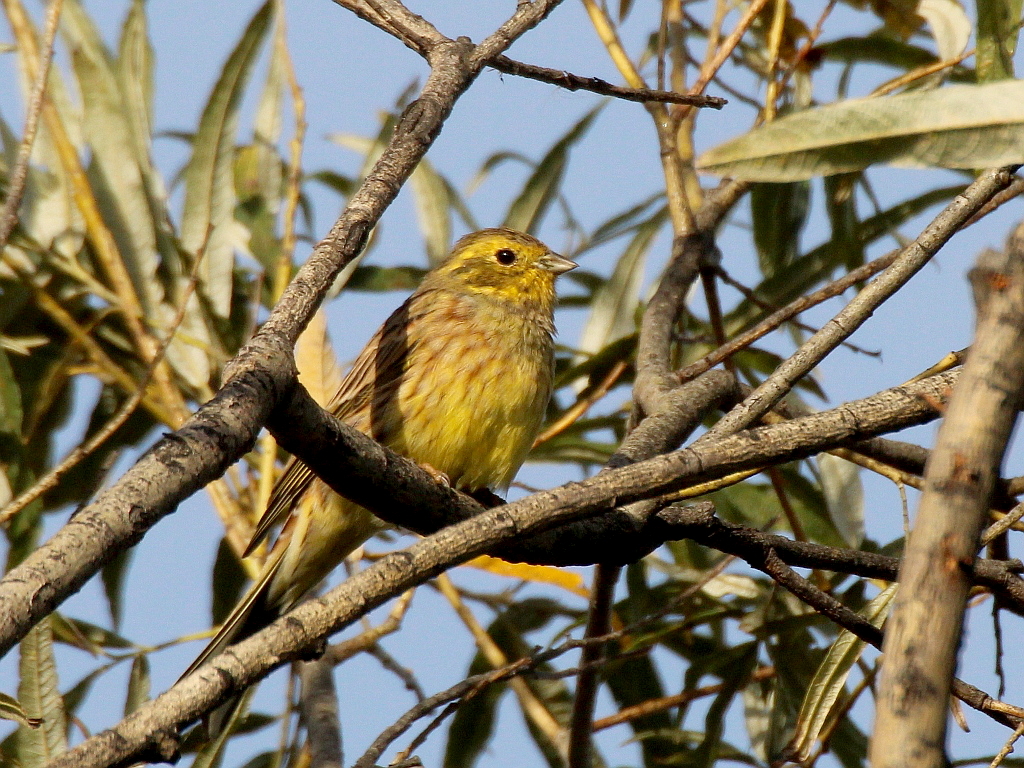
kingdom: Animalia
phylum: Chordata
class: Aves
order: Passeriformes
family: Emberizidae
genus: Emberiza
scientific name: Emberiza citrinella
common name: Yellowhammer
